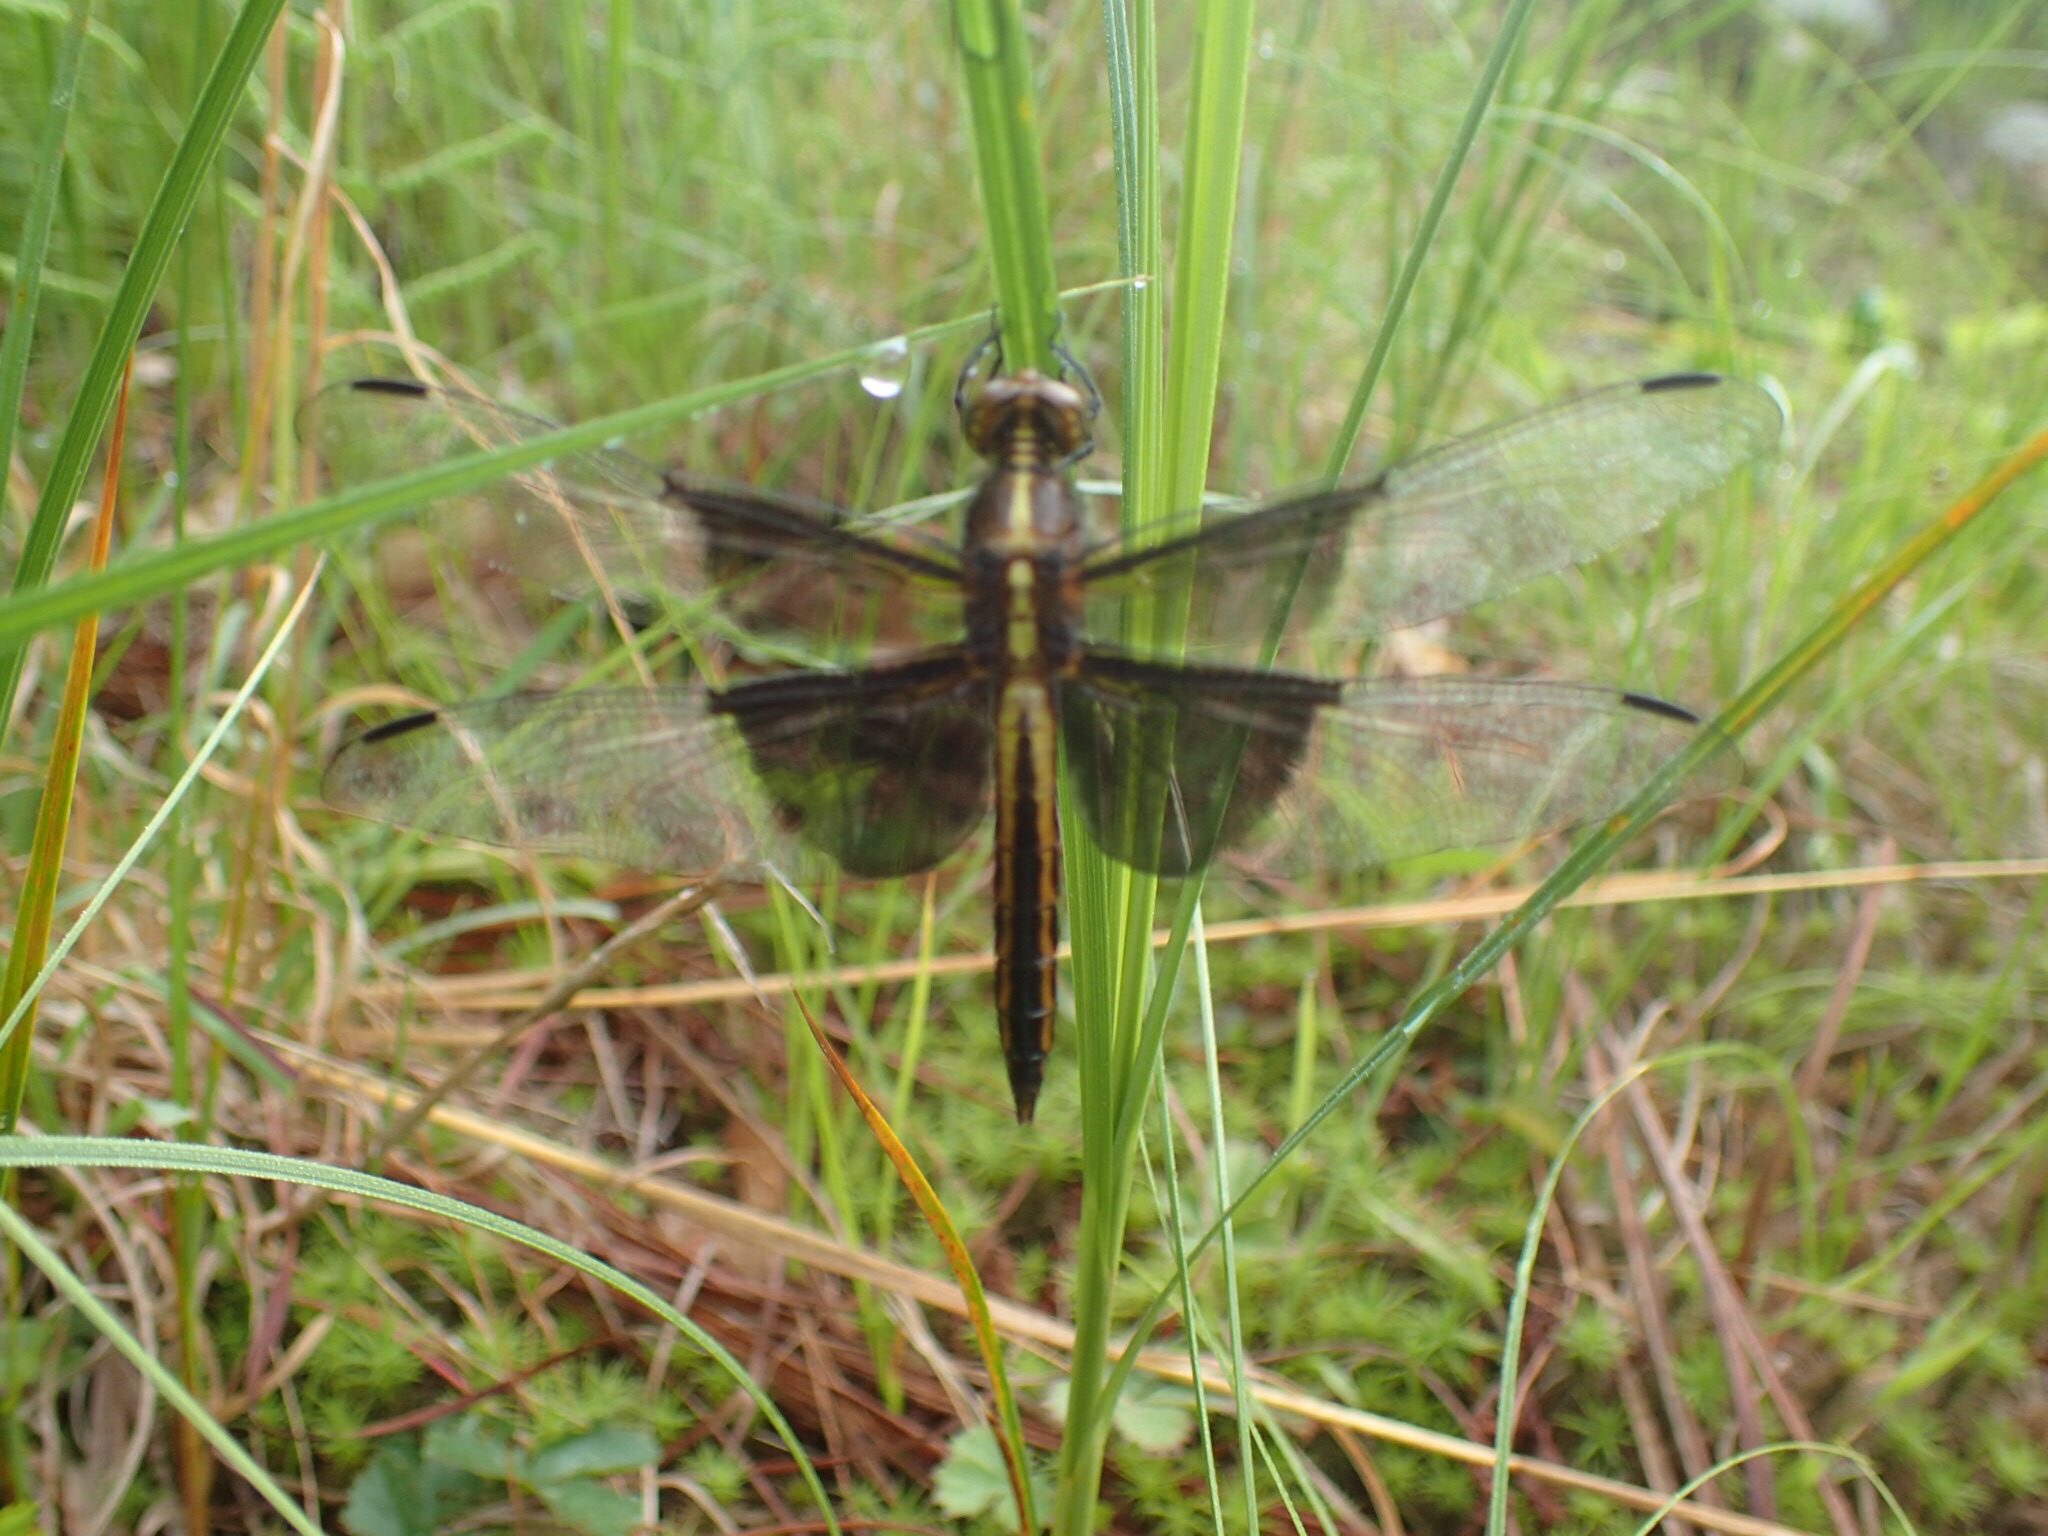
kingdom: Animalia
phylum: Arthropoda
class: Insecta
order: Odonata
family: Libellulidae
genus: Libellula
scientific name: Libellula luctuosa
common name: Widow skimmer
